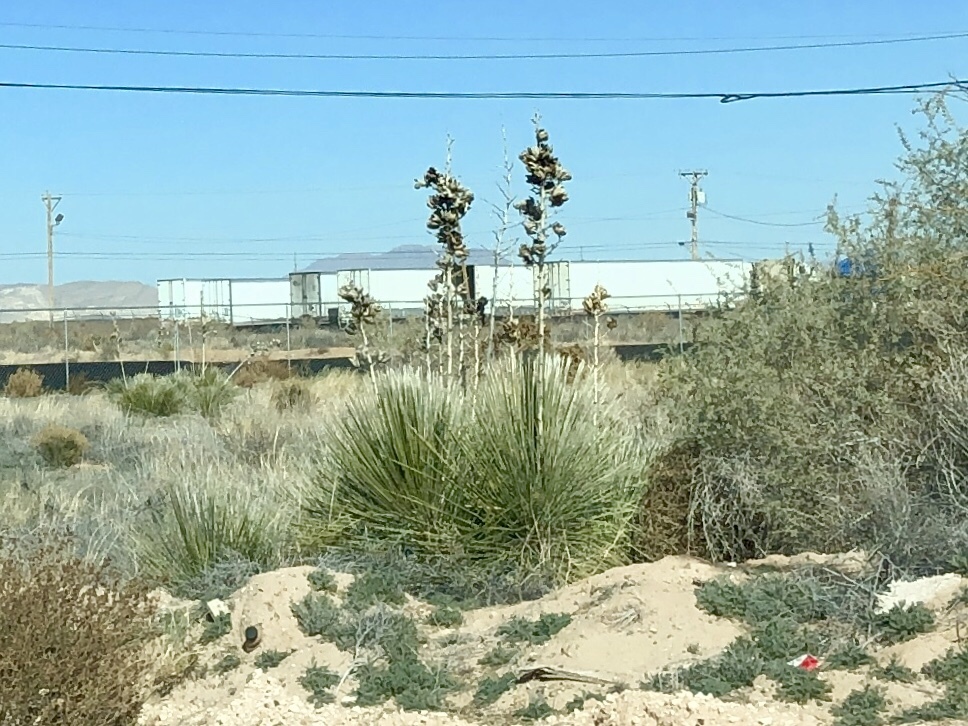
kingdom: Plantae
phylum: Tracheophyta
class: Liliopsida
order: Asparagales
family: Asparagaceae
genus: Yucca
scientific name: Yucca elata
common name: Palmella
